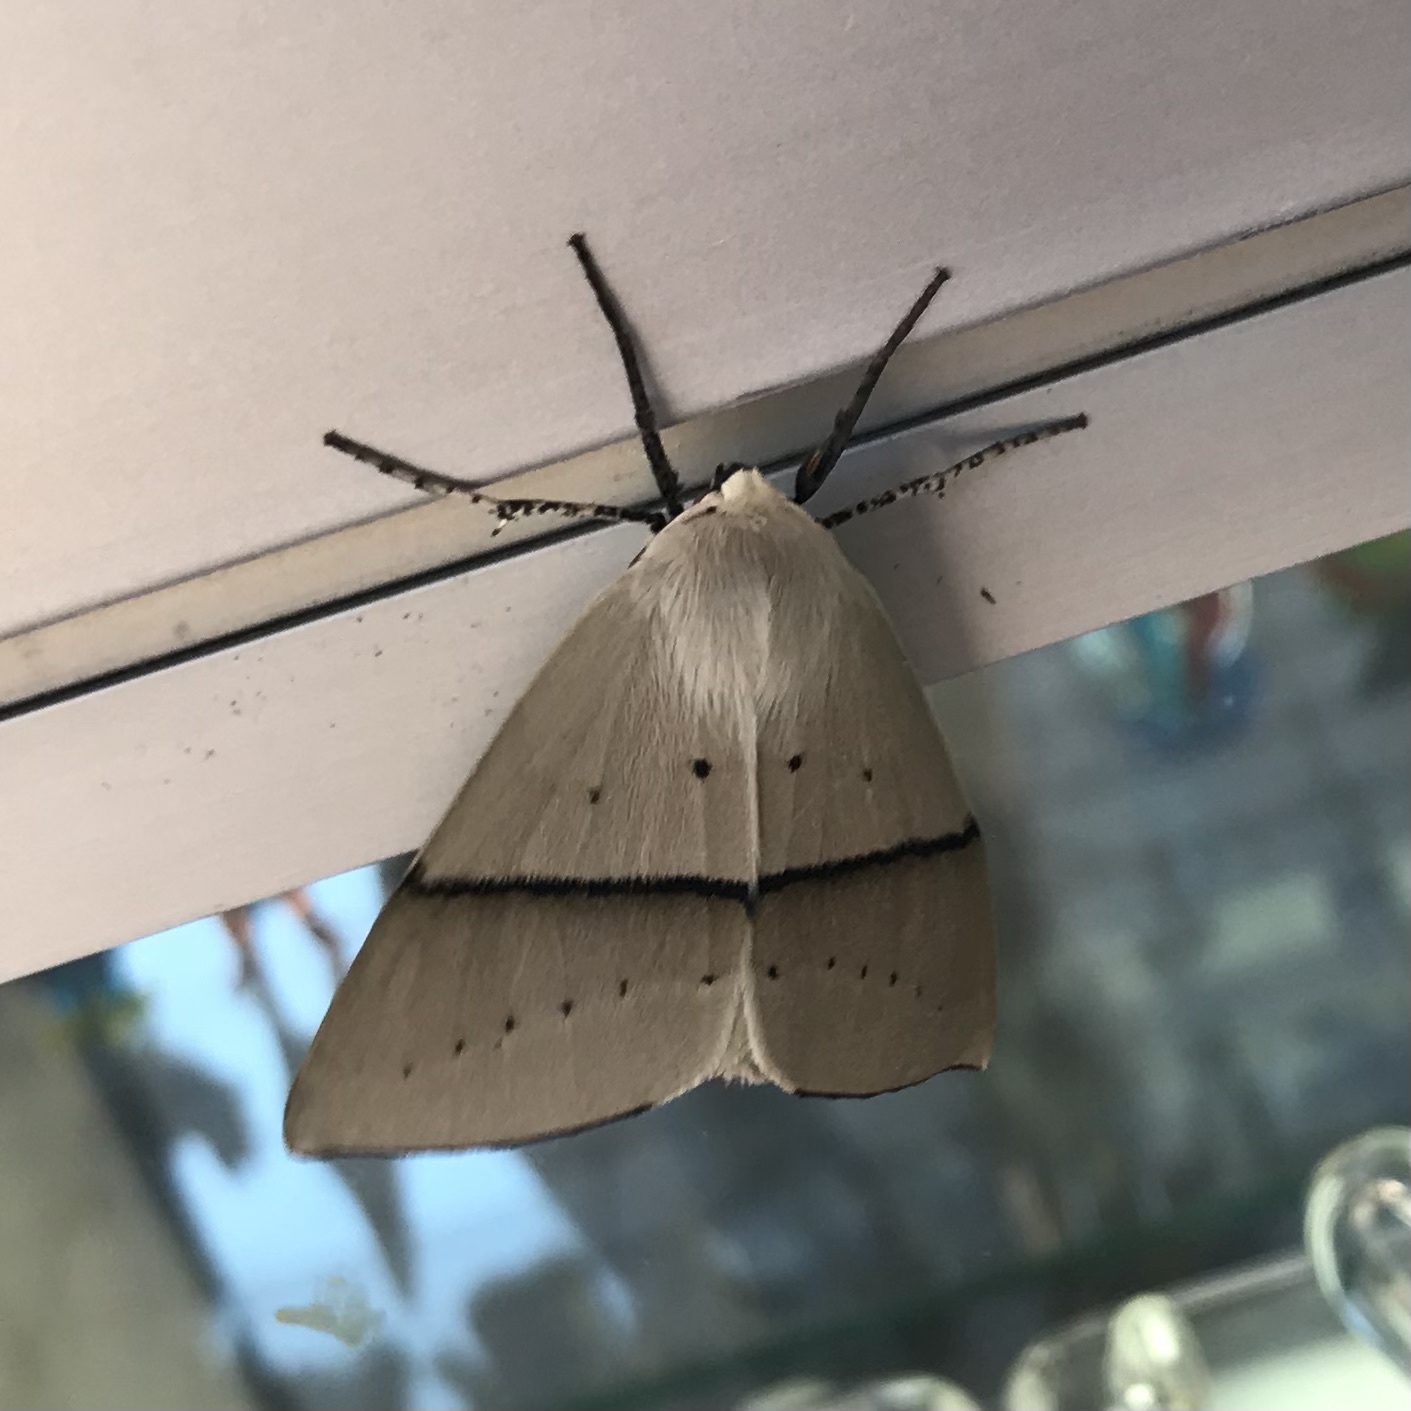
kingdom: Animalia
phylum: Arthropoda
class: Insecta
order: Lepidoptera
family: Geometridae
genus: Gastrophora
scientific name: Gastrophora henricaria
